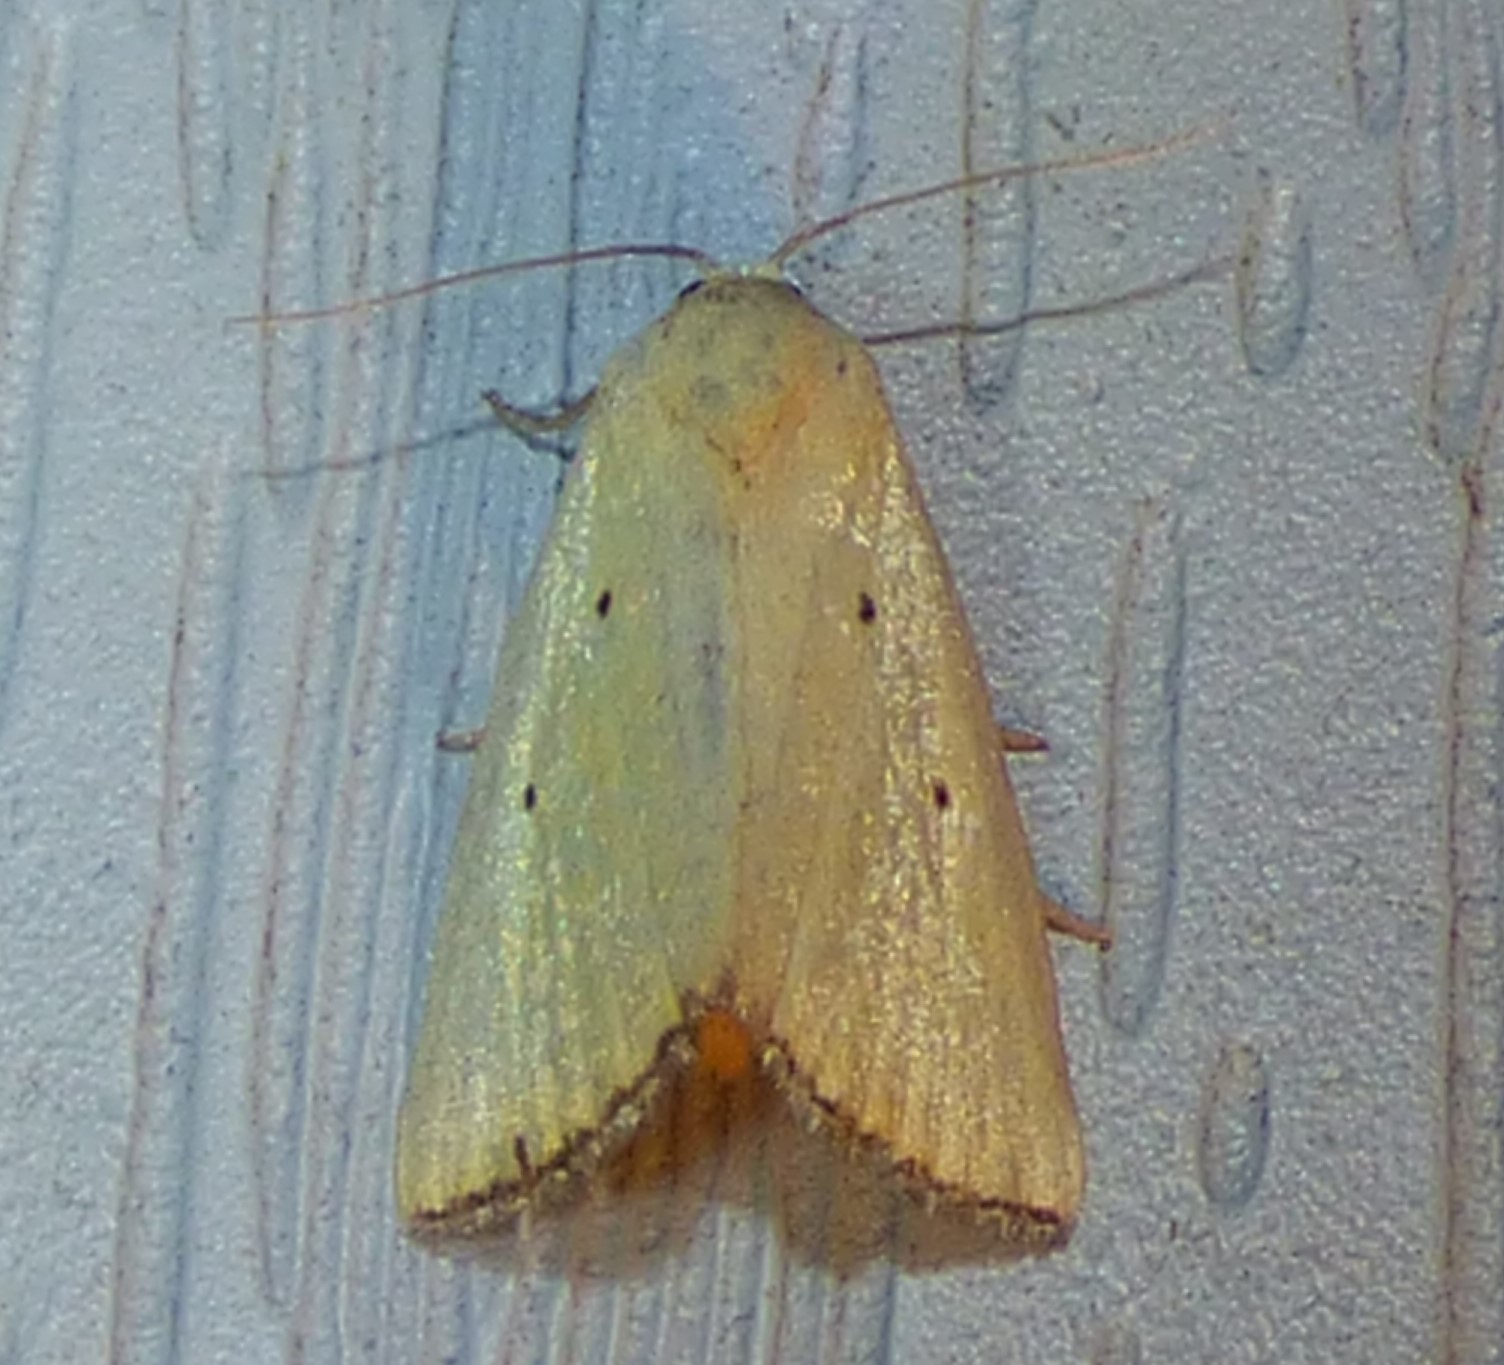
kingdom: Animalia
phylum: Arthropoda
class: Insecta
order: Lepidoptera
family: Noctuidae
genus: Marimatha
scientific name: Marimatha nigrofimbria
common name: Black-bordered lemon moth
